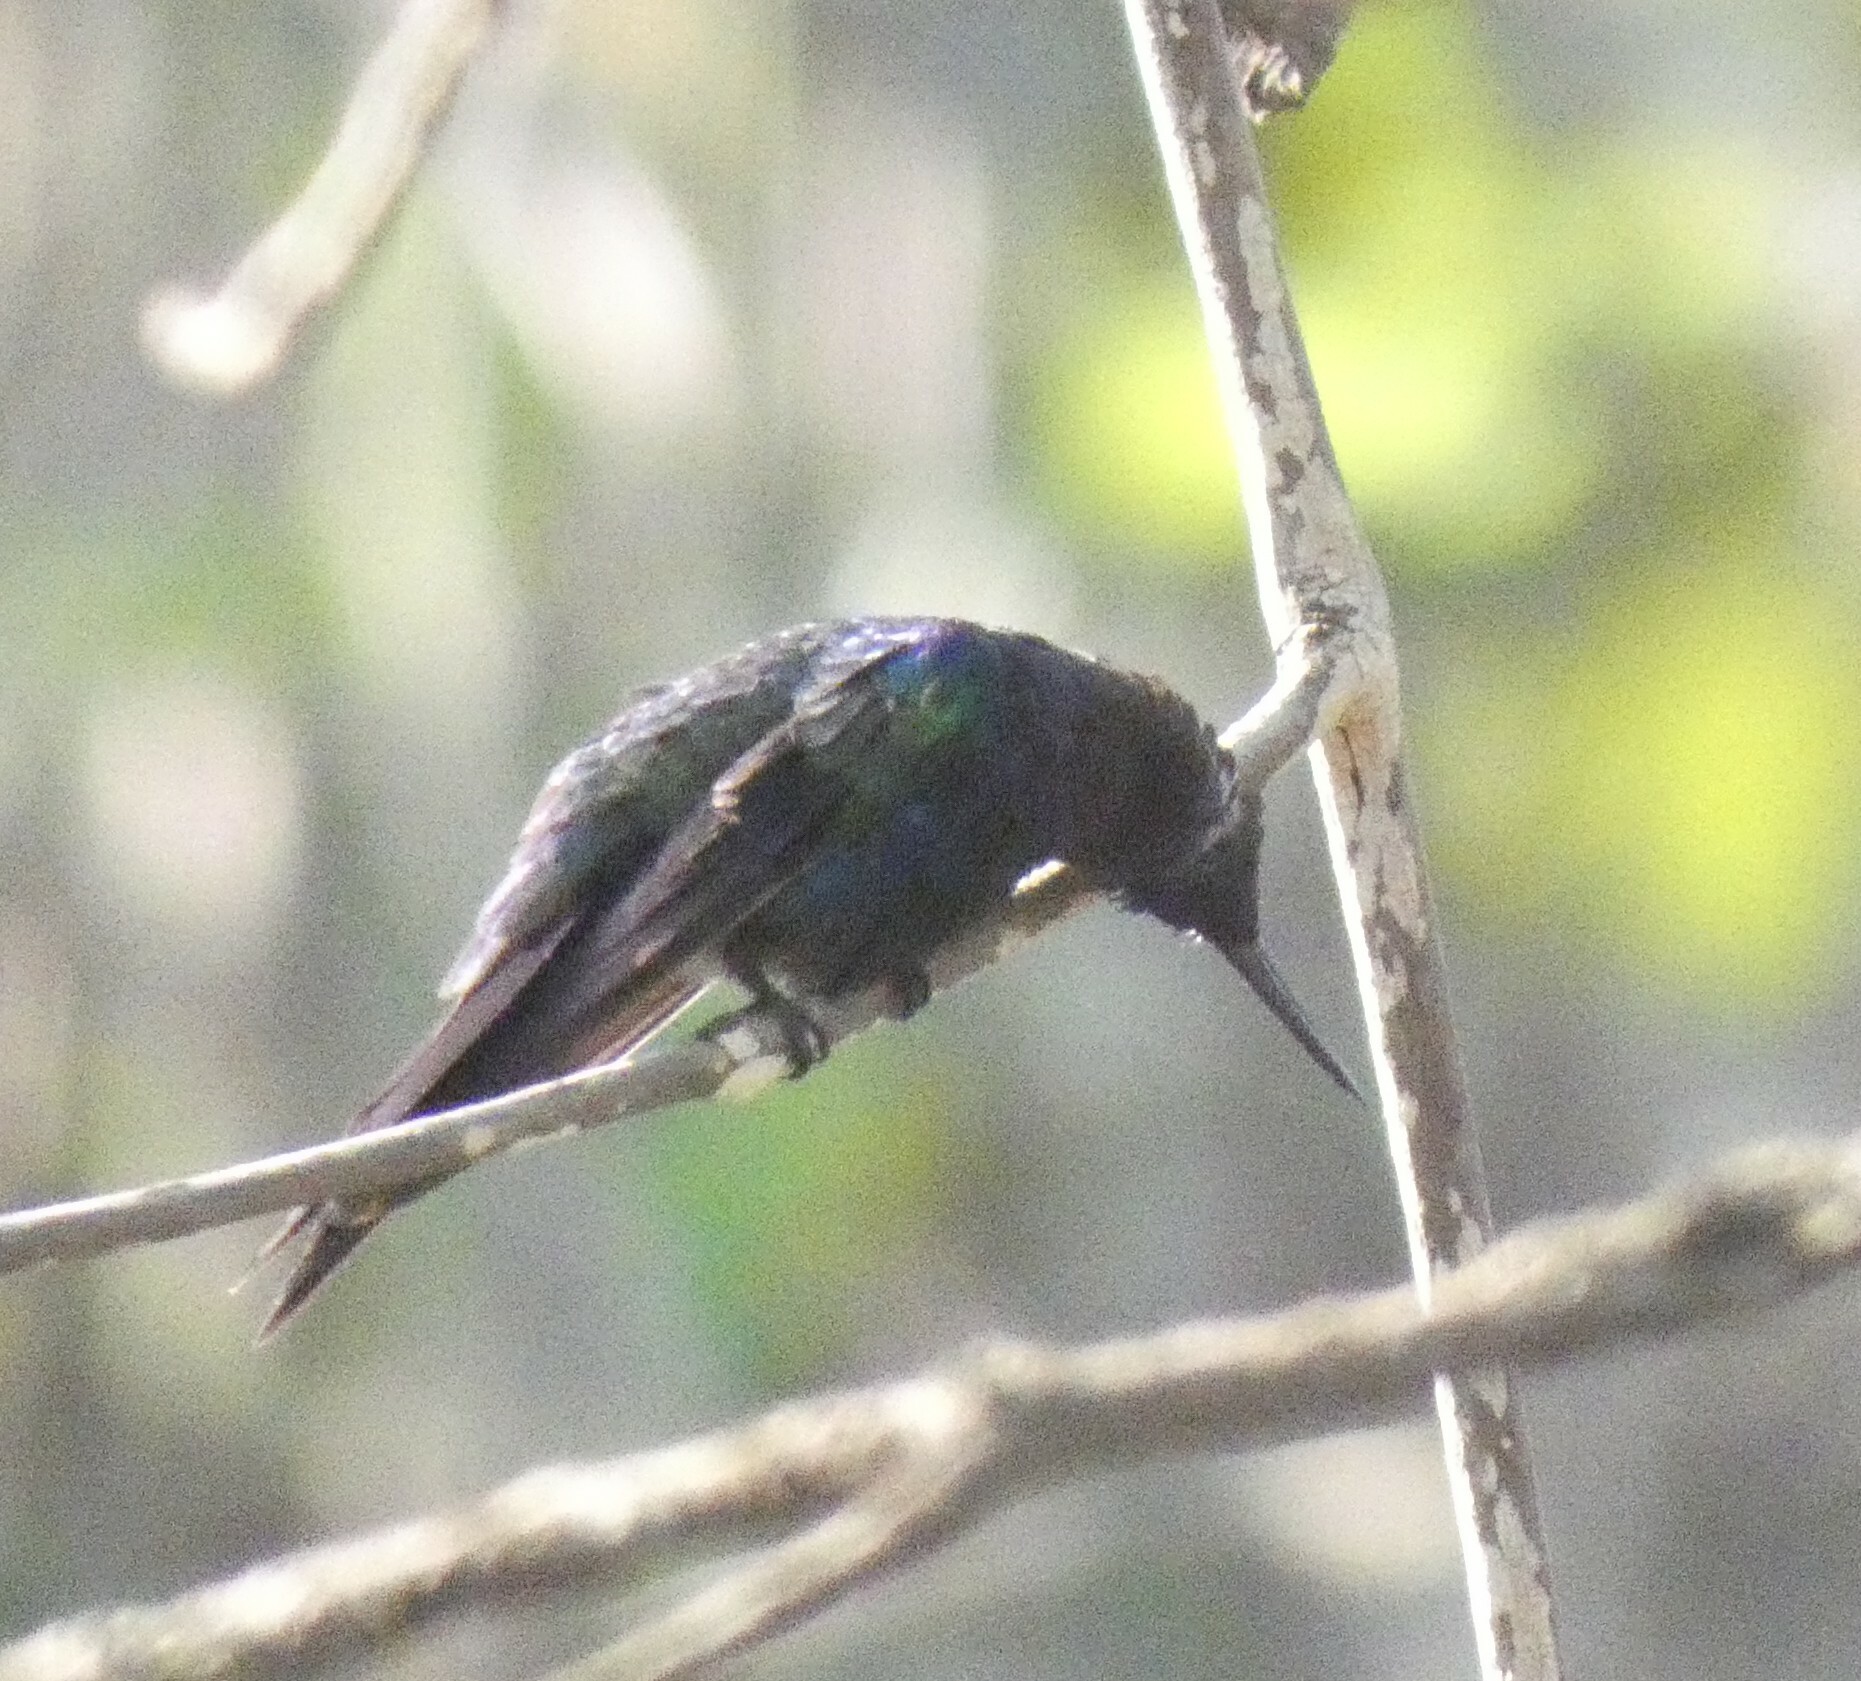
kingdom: Animalia
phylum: Chordata
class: Aves
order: Apodiformes
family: Trochilidae
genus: Thalurania
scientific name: Thalurania furcata
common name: Fork-tailed woodnymph
